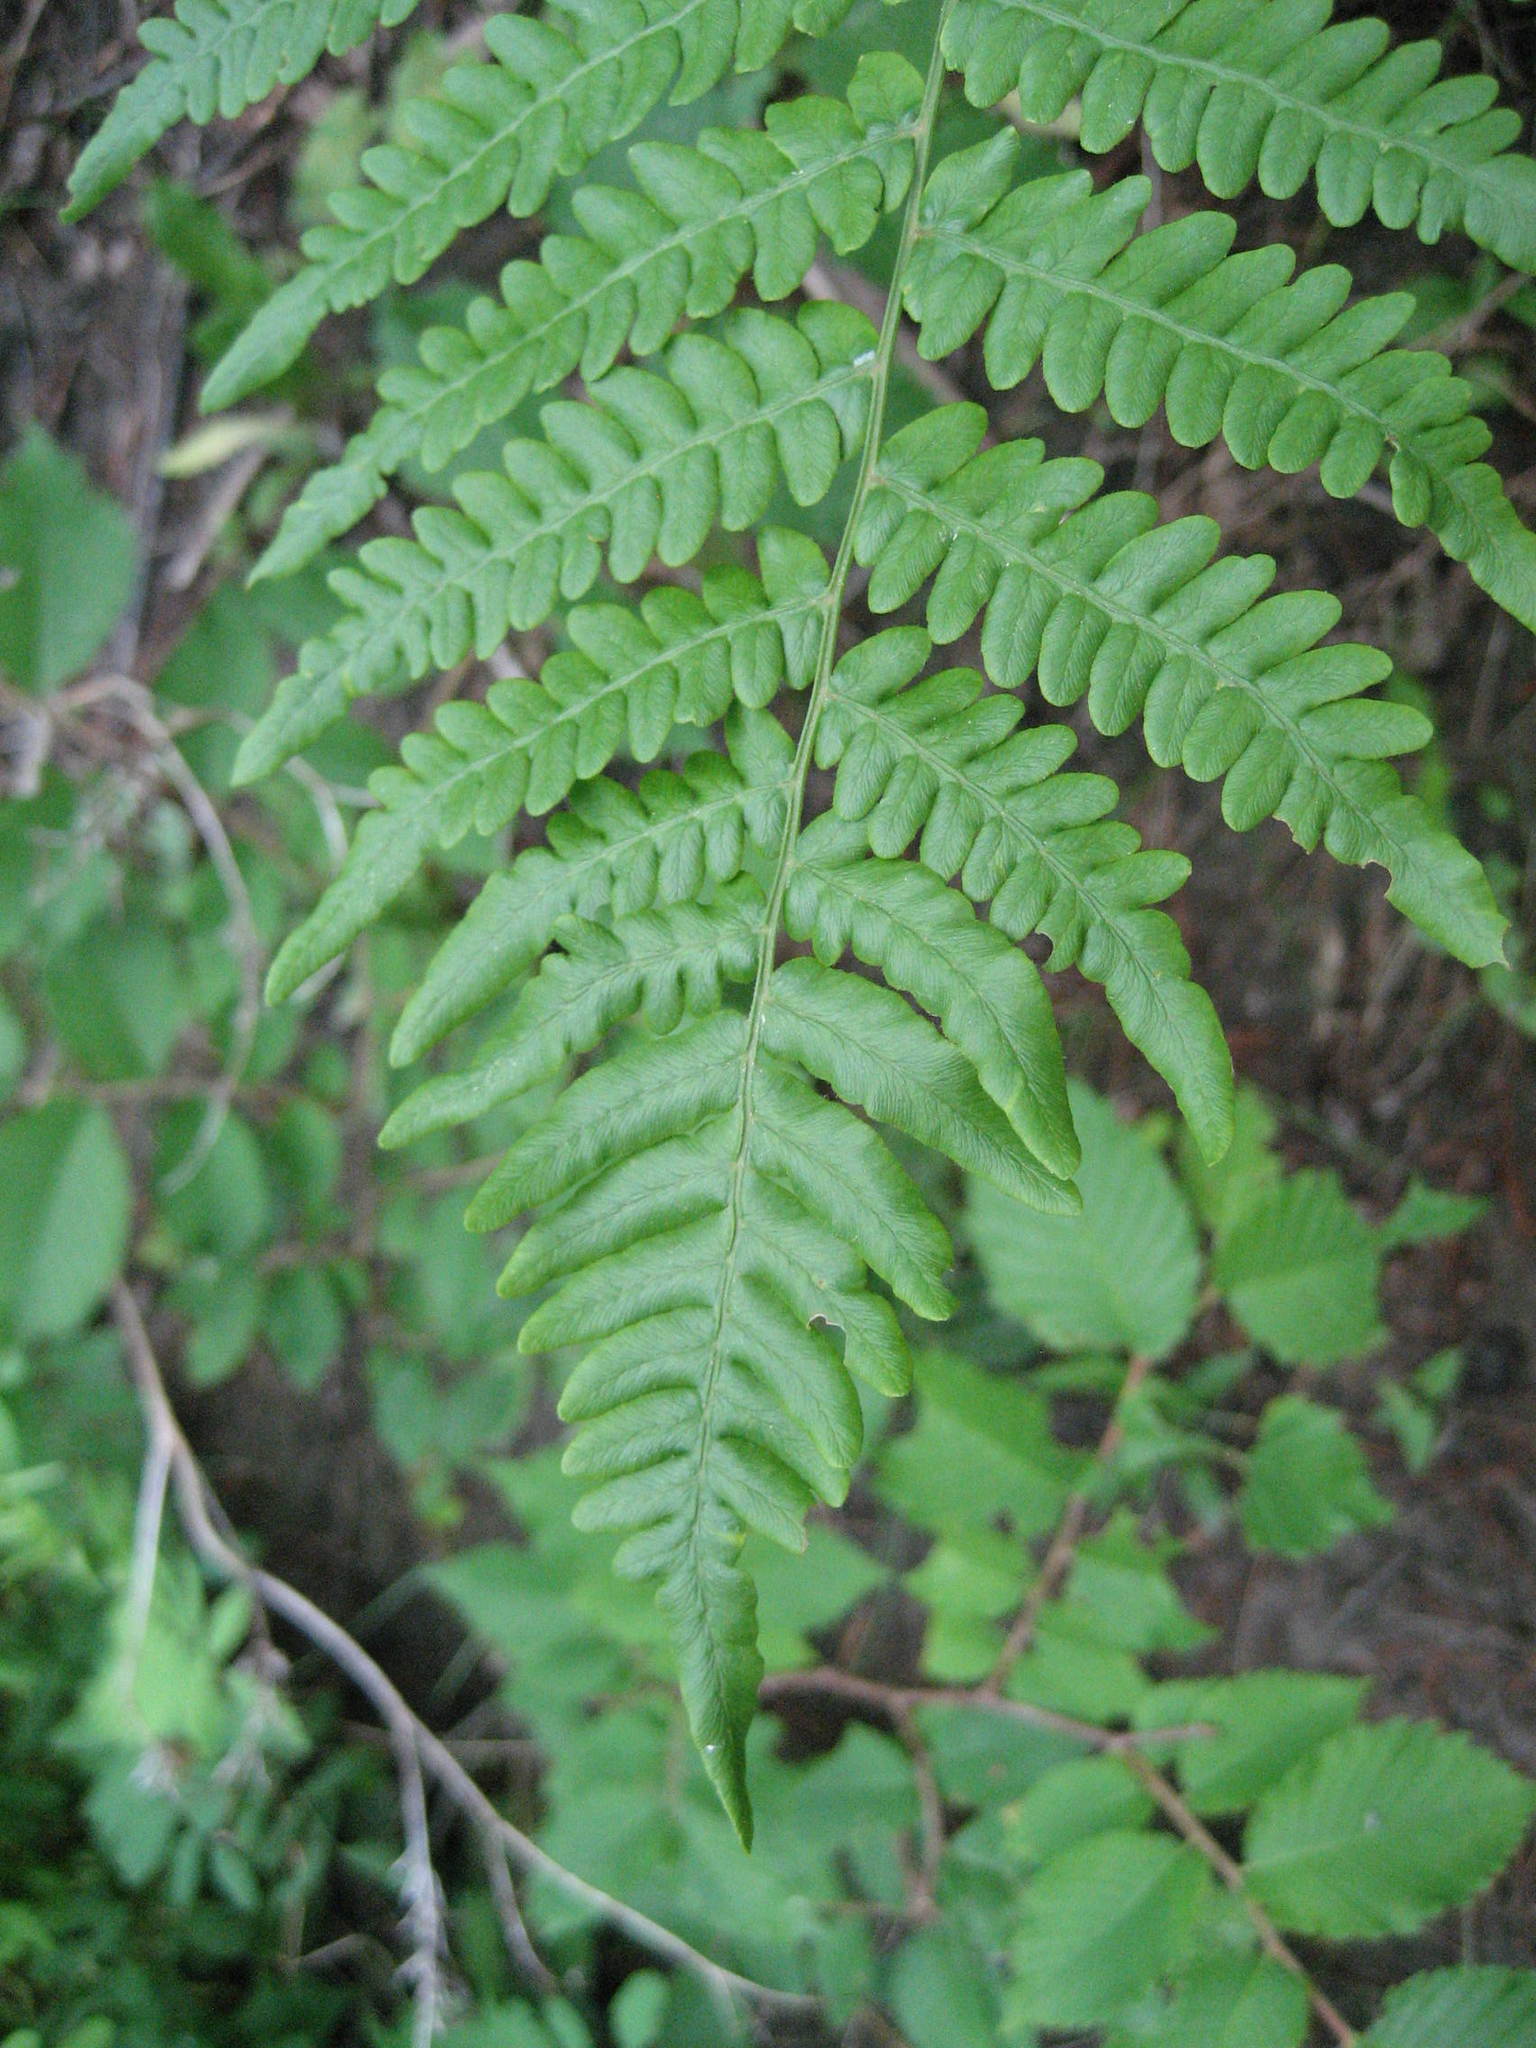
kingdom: Plantae
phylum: Tracheophyta
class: Polypodiopsida
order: Polypodiales
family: Dennstaedtiaceae
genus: Pteridium
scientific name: Pteridium aquilinum
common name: Bracken
